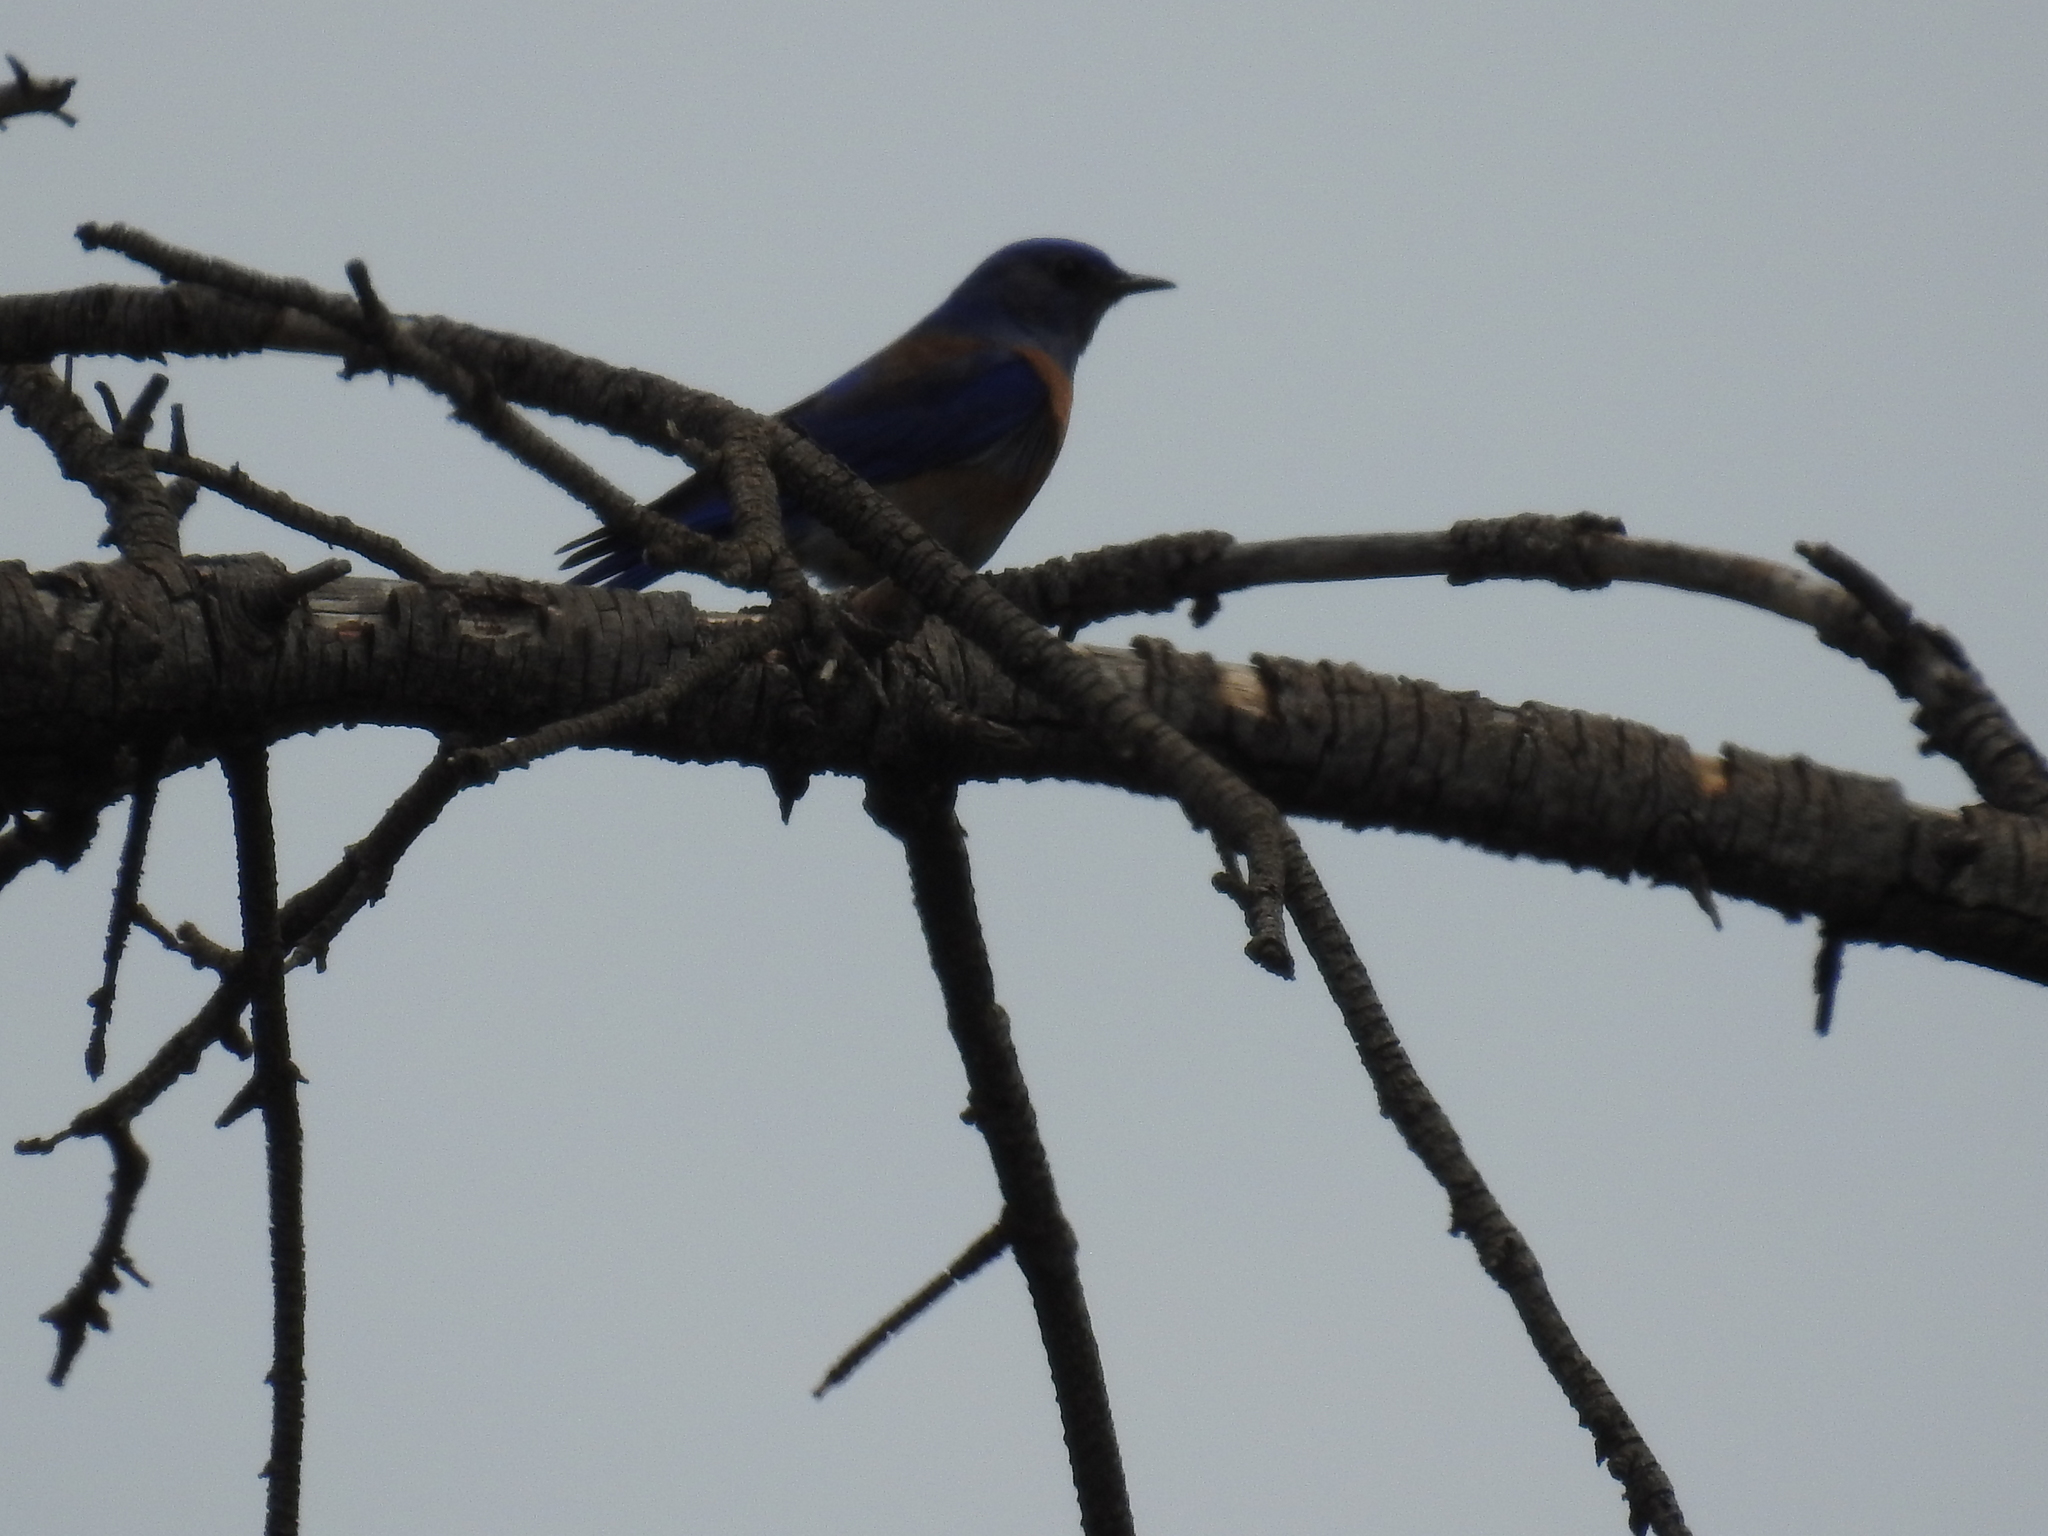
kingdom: Animalia
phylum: Chordata
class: Aves
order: Passeriformes
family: Turdidae
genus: Sialia
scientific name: Sialia mexicana
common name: Western bluebird
